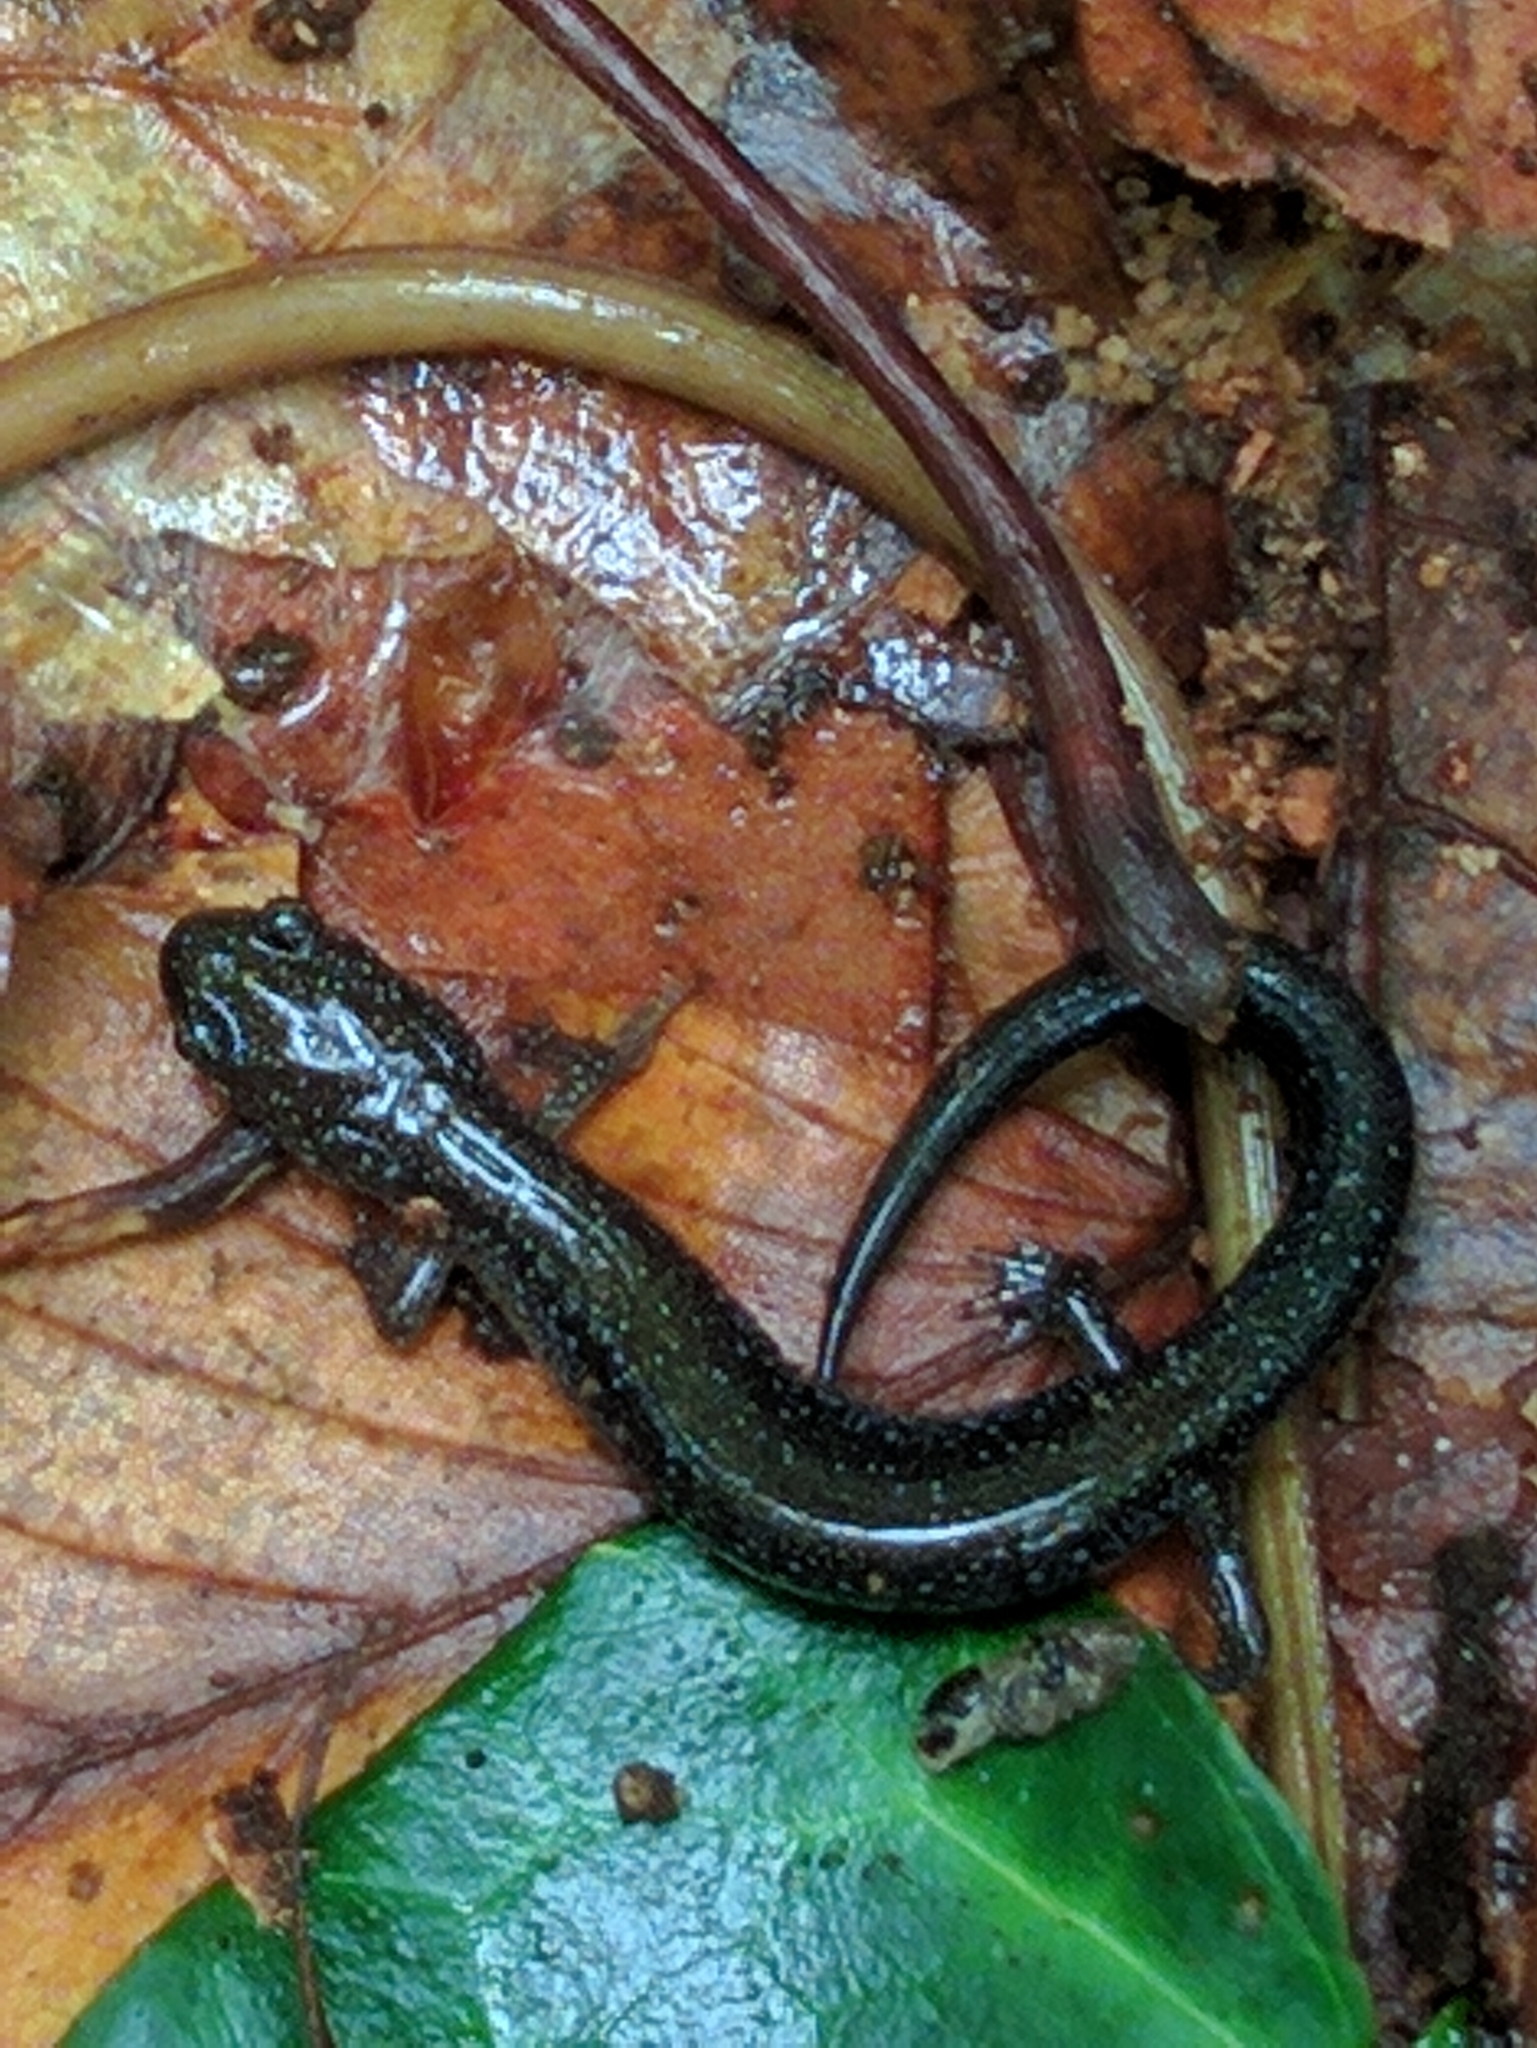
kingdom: Animalia
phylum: Chordata
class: Amphibia
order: Caudata
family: Plethodontidae
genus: Plethodon
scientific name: Plethodon cinereus
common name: Redback salamander
